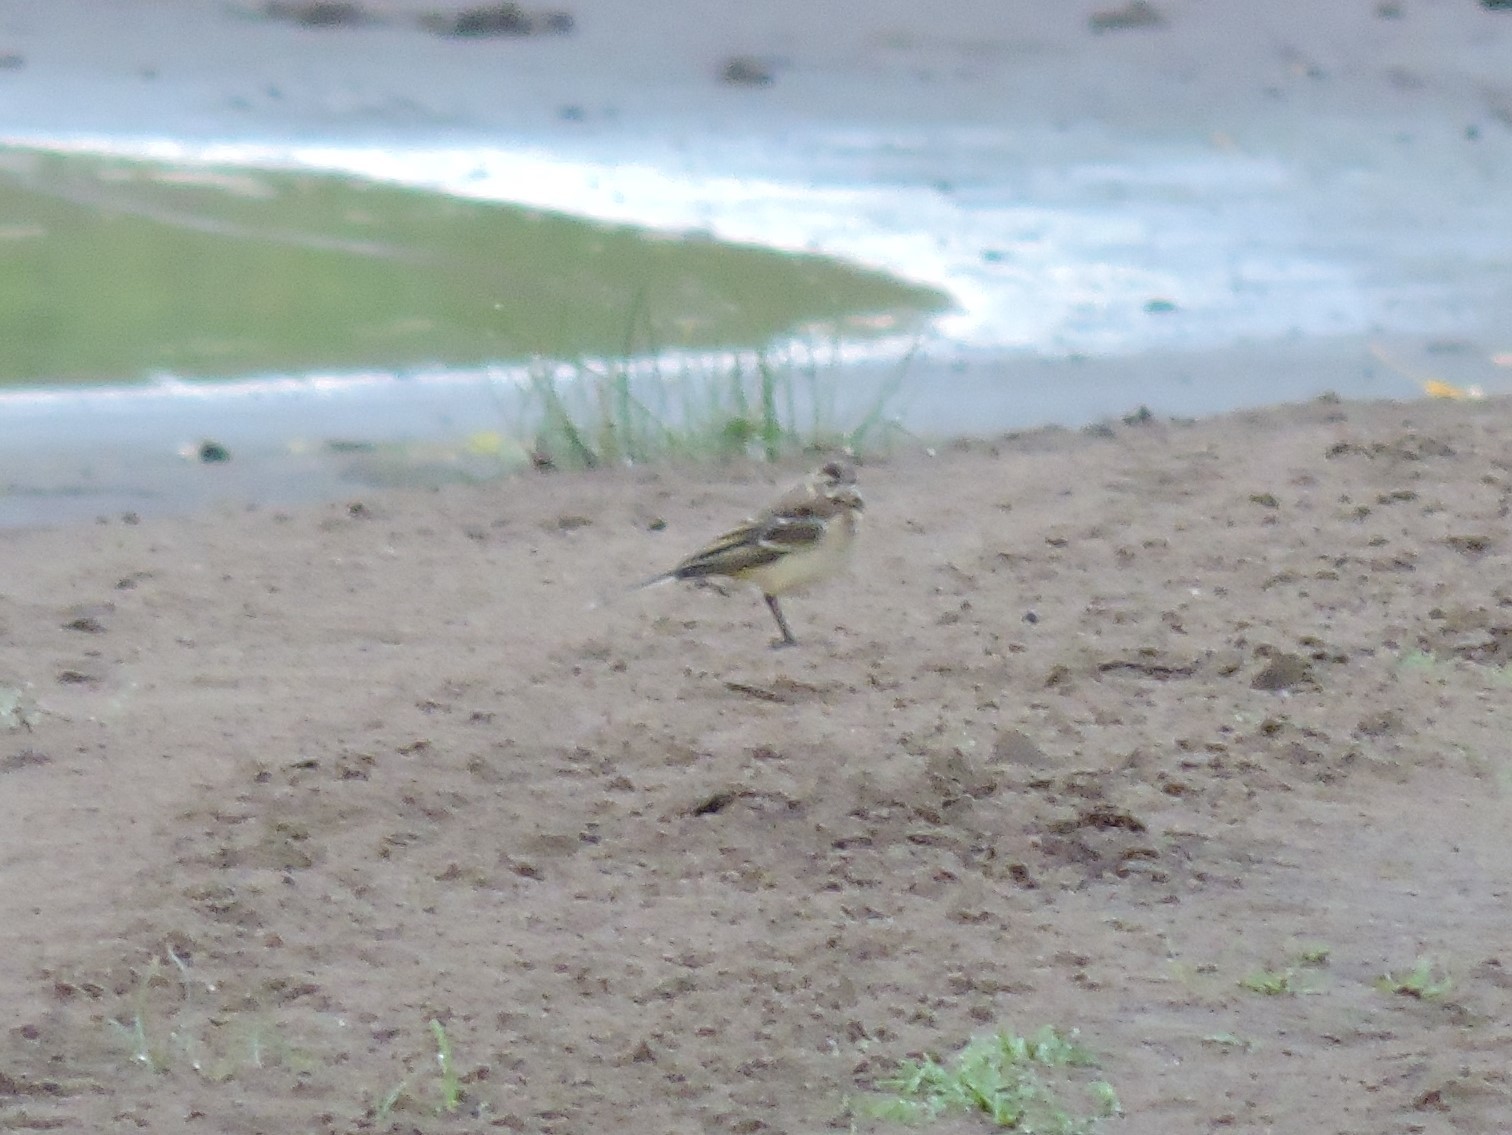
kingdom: Animalia
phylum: Chordata
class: Aves
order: Passeriformes
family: Motacillidae
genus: Motacilla
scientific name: Motacilla flava
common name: Western yellow wagtail
